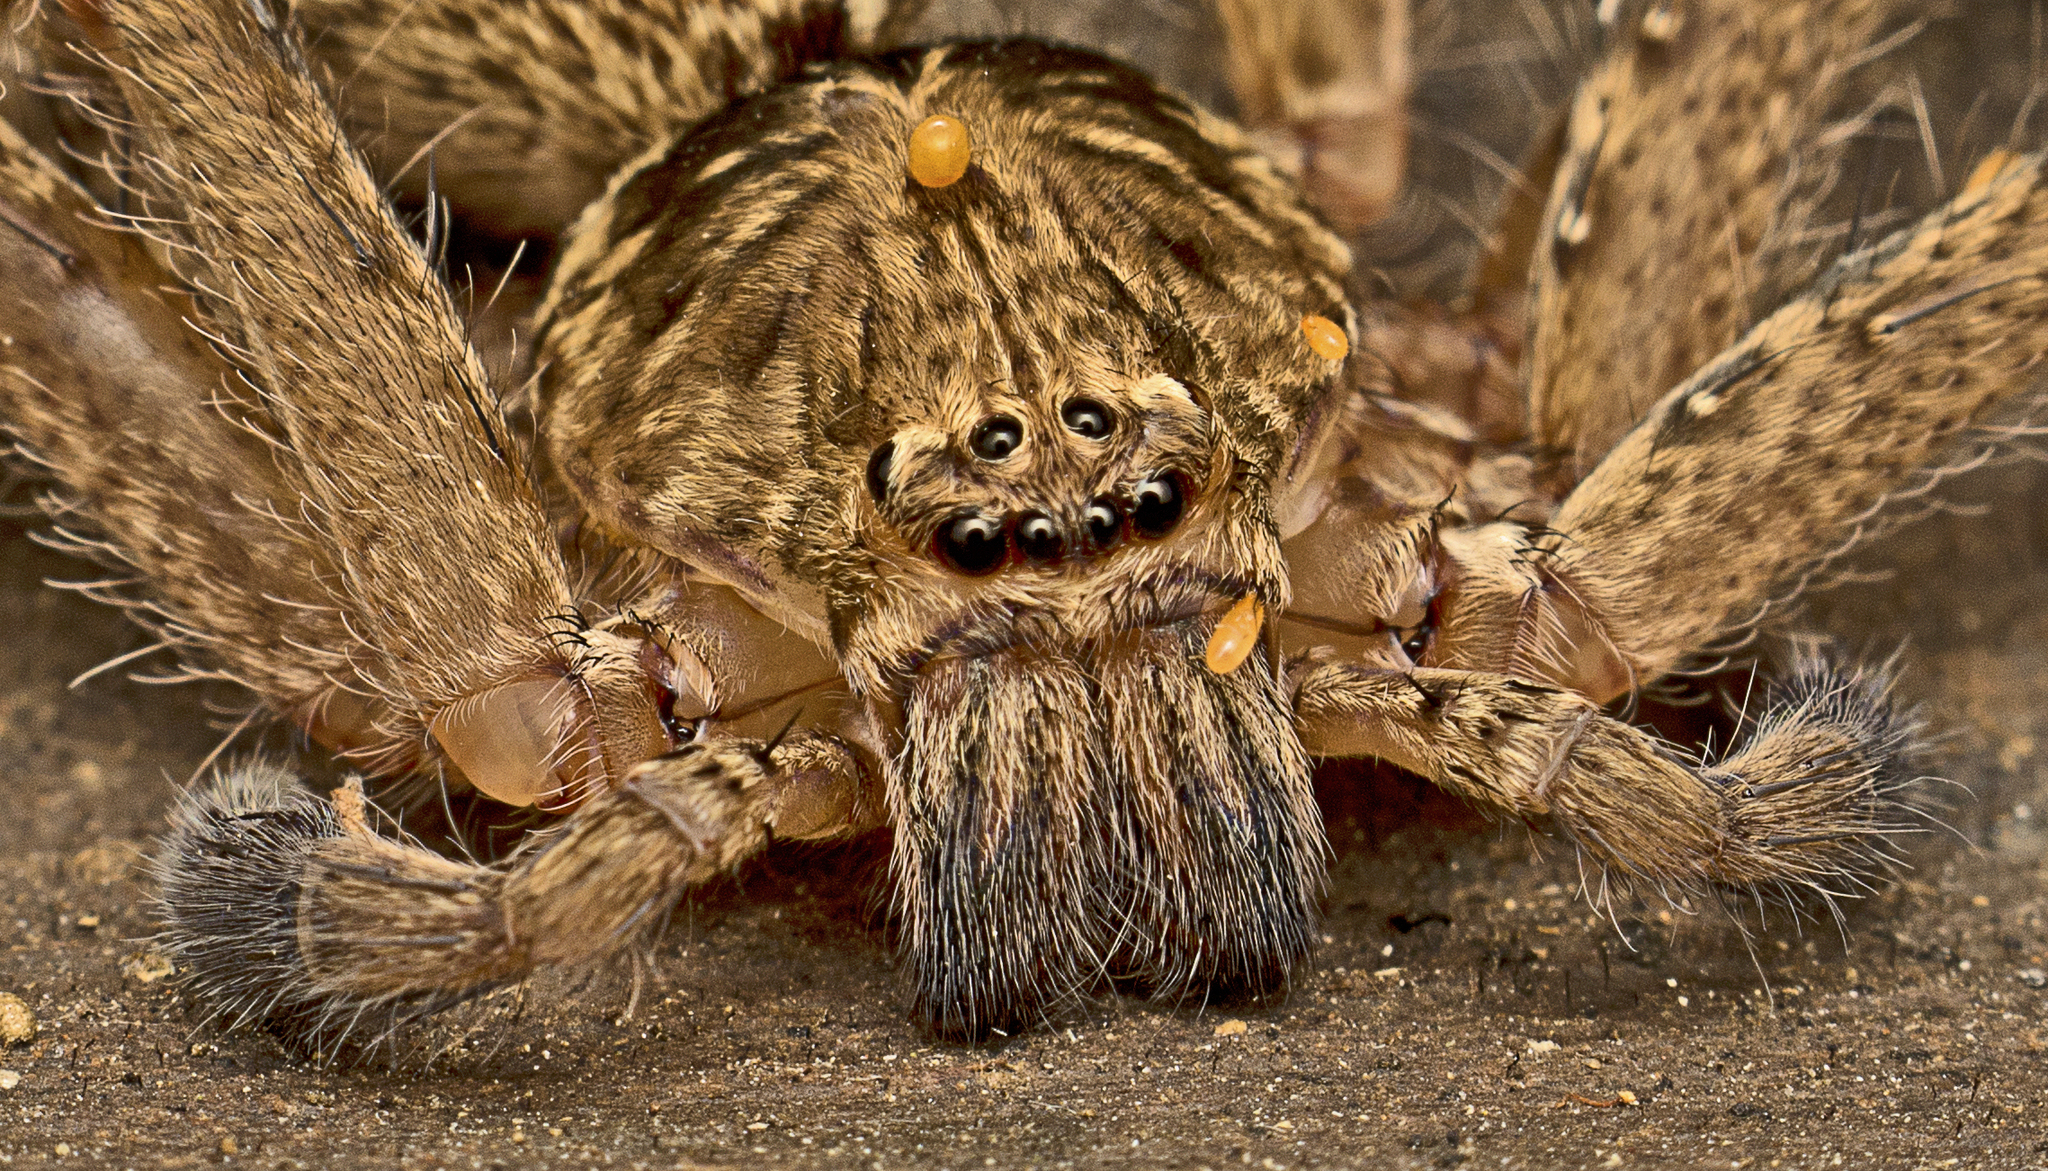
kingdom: Animalia
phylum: Arthropoda
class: Arachnida
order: Araneae
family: Sparassidae
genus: Heteropoda
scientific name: Heteropoda jugulans
